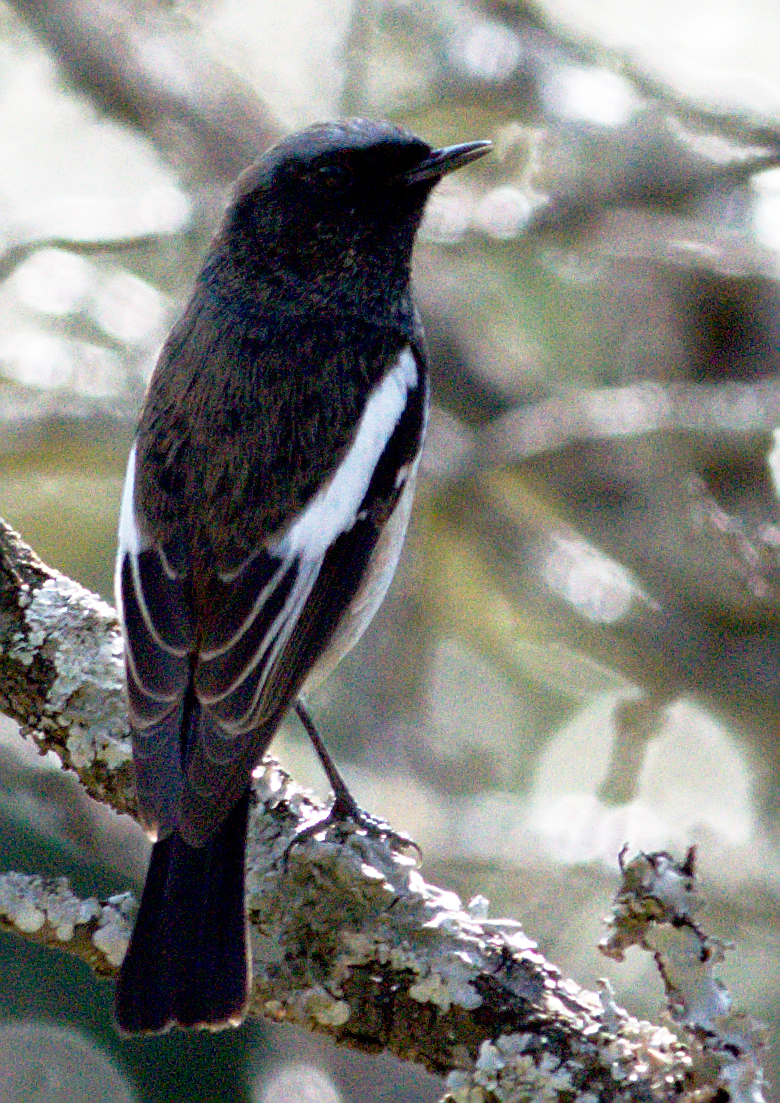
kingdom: Animalia
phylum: Chordata
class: Aves
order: Passeriformes
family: Muscicapidae
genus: Phoenicurus
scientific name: Phoenicurus coeruleocephala
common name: Blue-capped redstart
